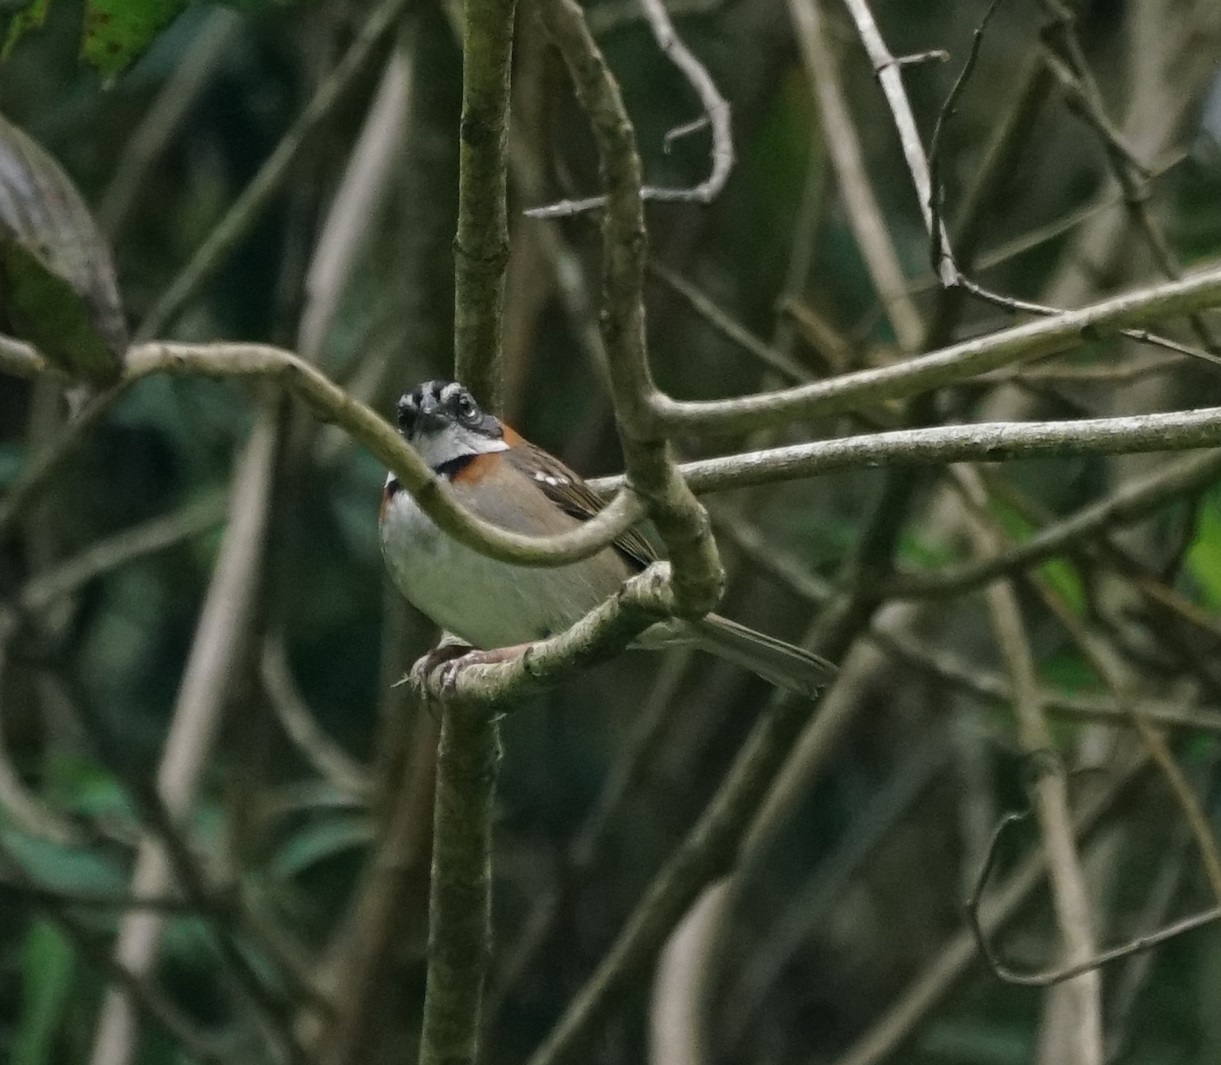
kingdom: Animalia
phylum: Chordata
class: Aves
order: Passeriformes
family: Passerellidae
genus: Zonotrichia
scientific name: Zonotrichia capensis
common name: Rufous-collared sparrow
